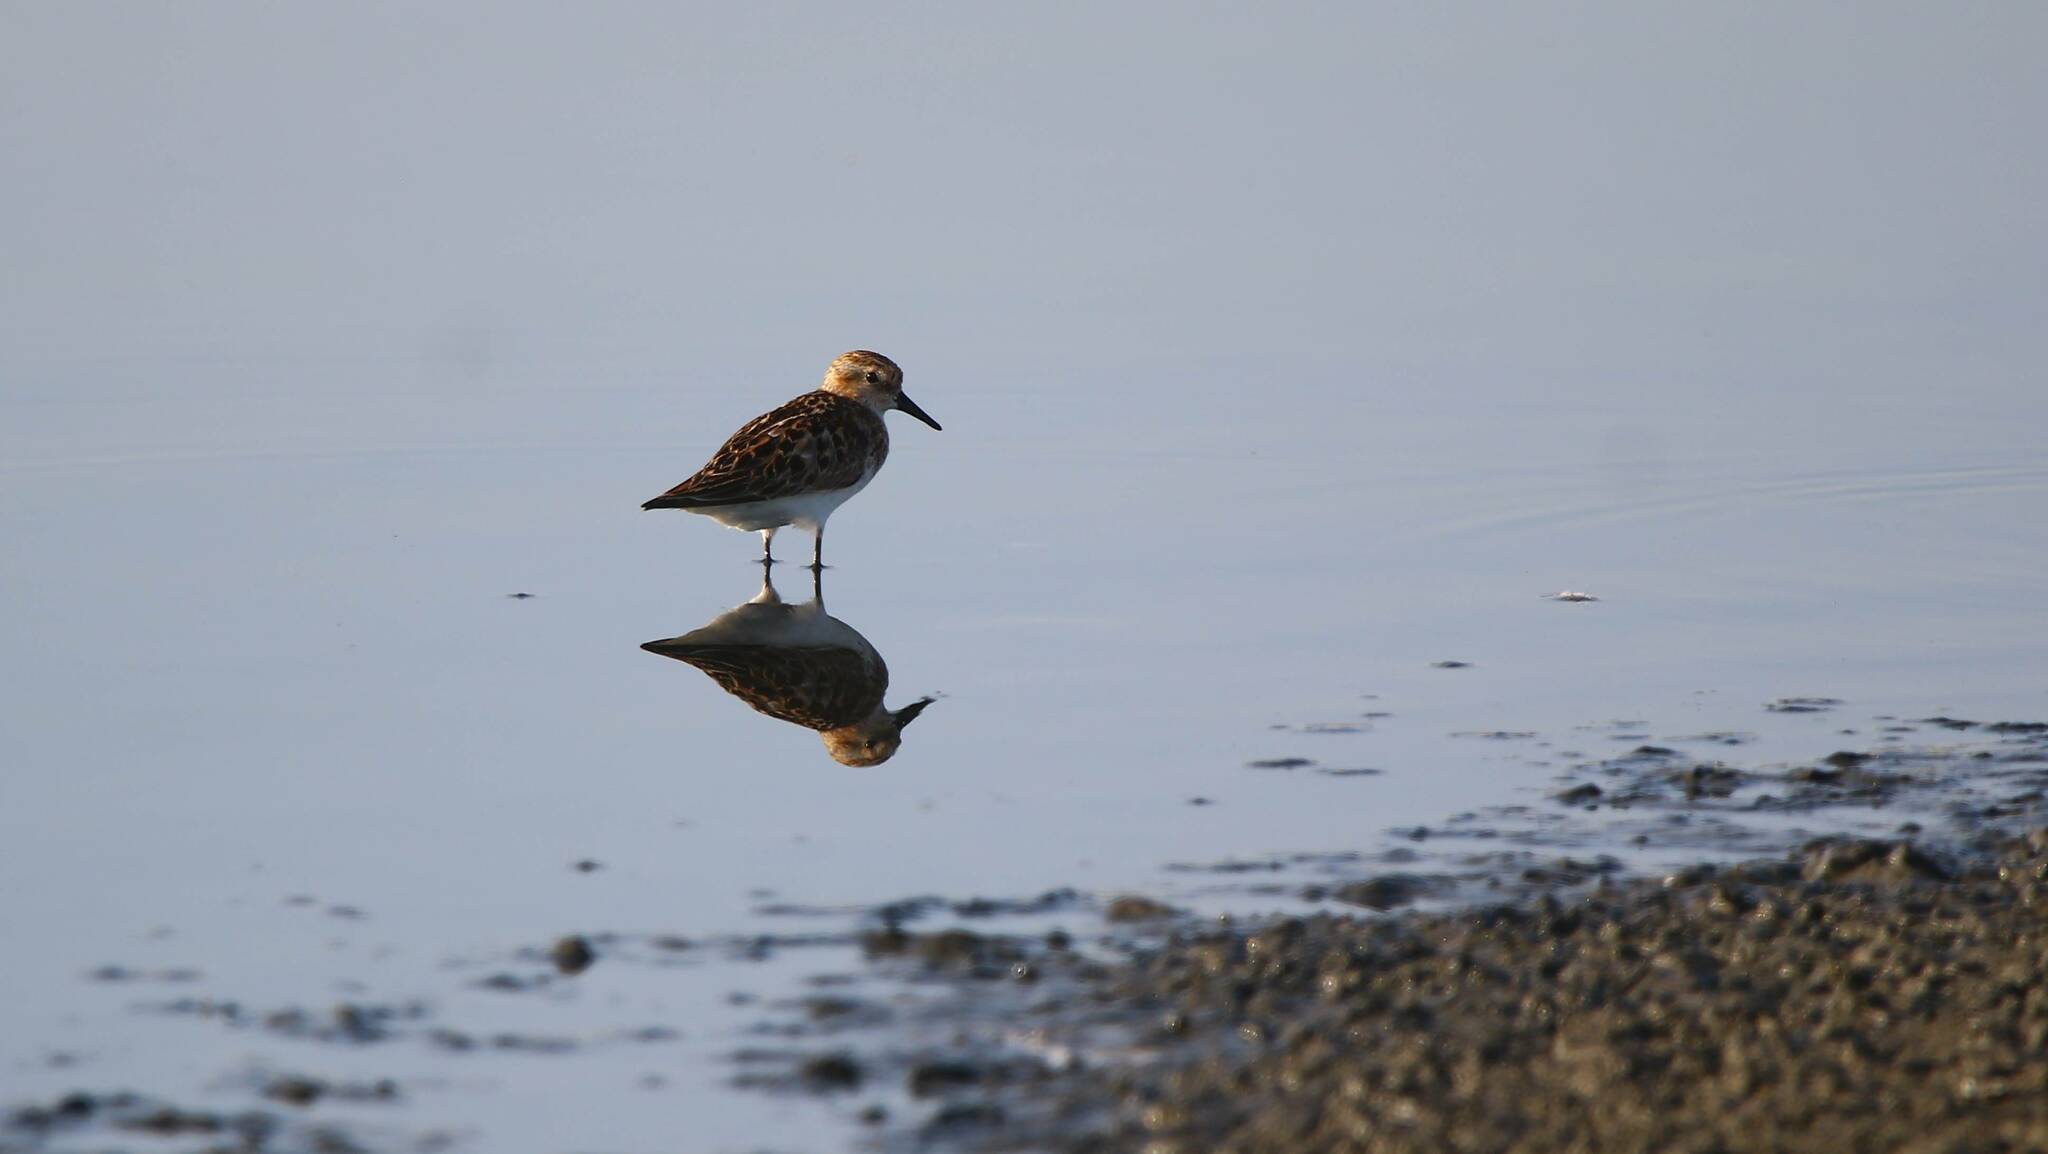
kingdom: Animalia
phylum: Chordata
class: Aves
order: Charadriiformes
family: Scolopacidae
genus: Calidris
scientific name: Calidris minuta
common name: Little stint
